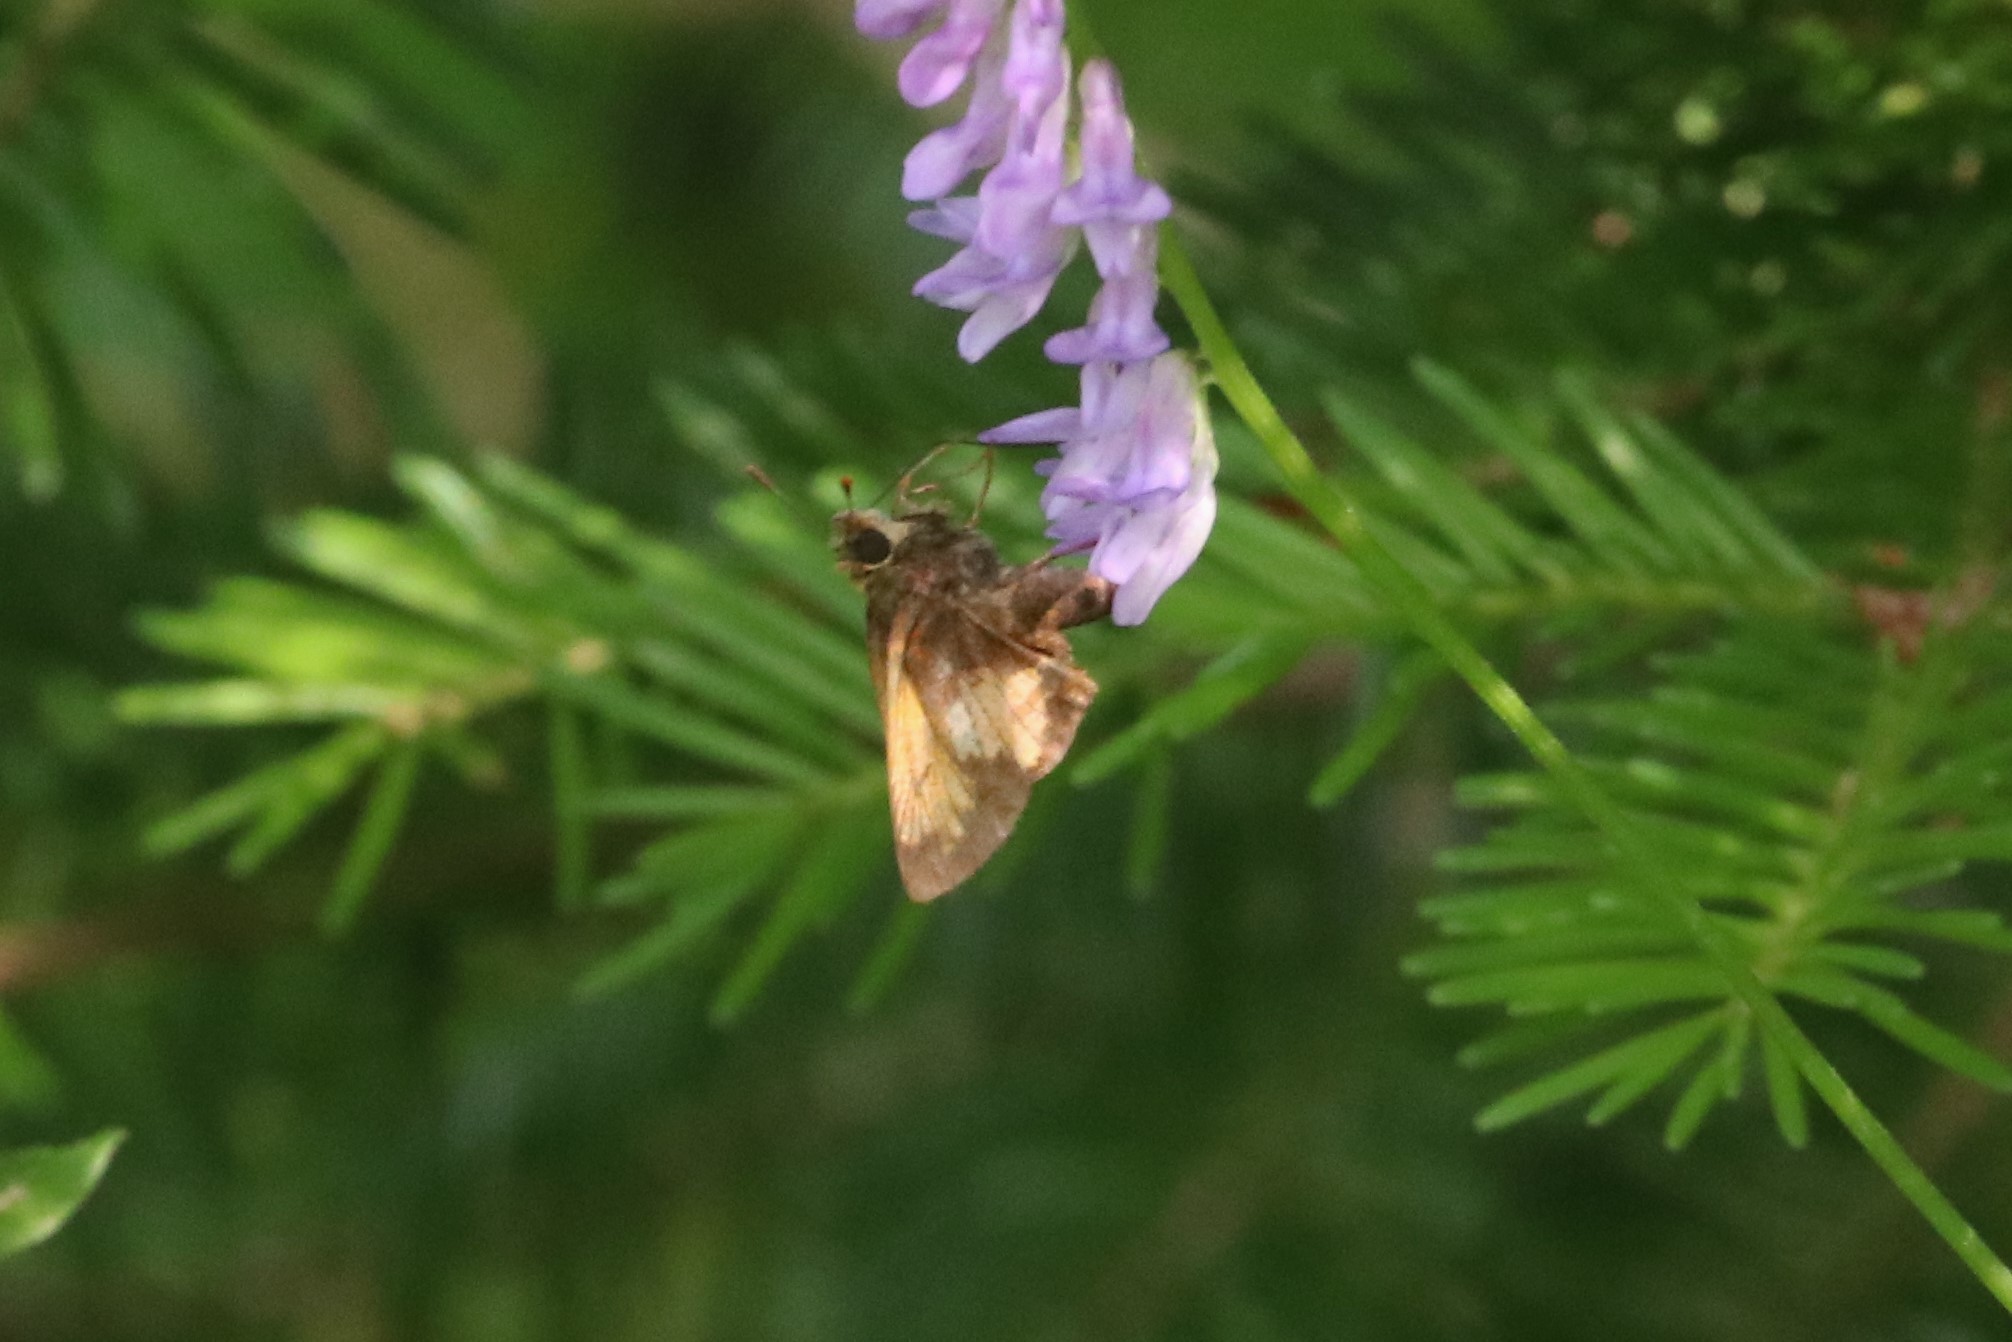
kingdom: Animalia
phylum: Arthropoda
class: Insecta
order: Lepidoptera
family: Hesperiidae
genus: Lon
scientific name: Lon hobomok
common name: Hobomok skipper
